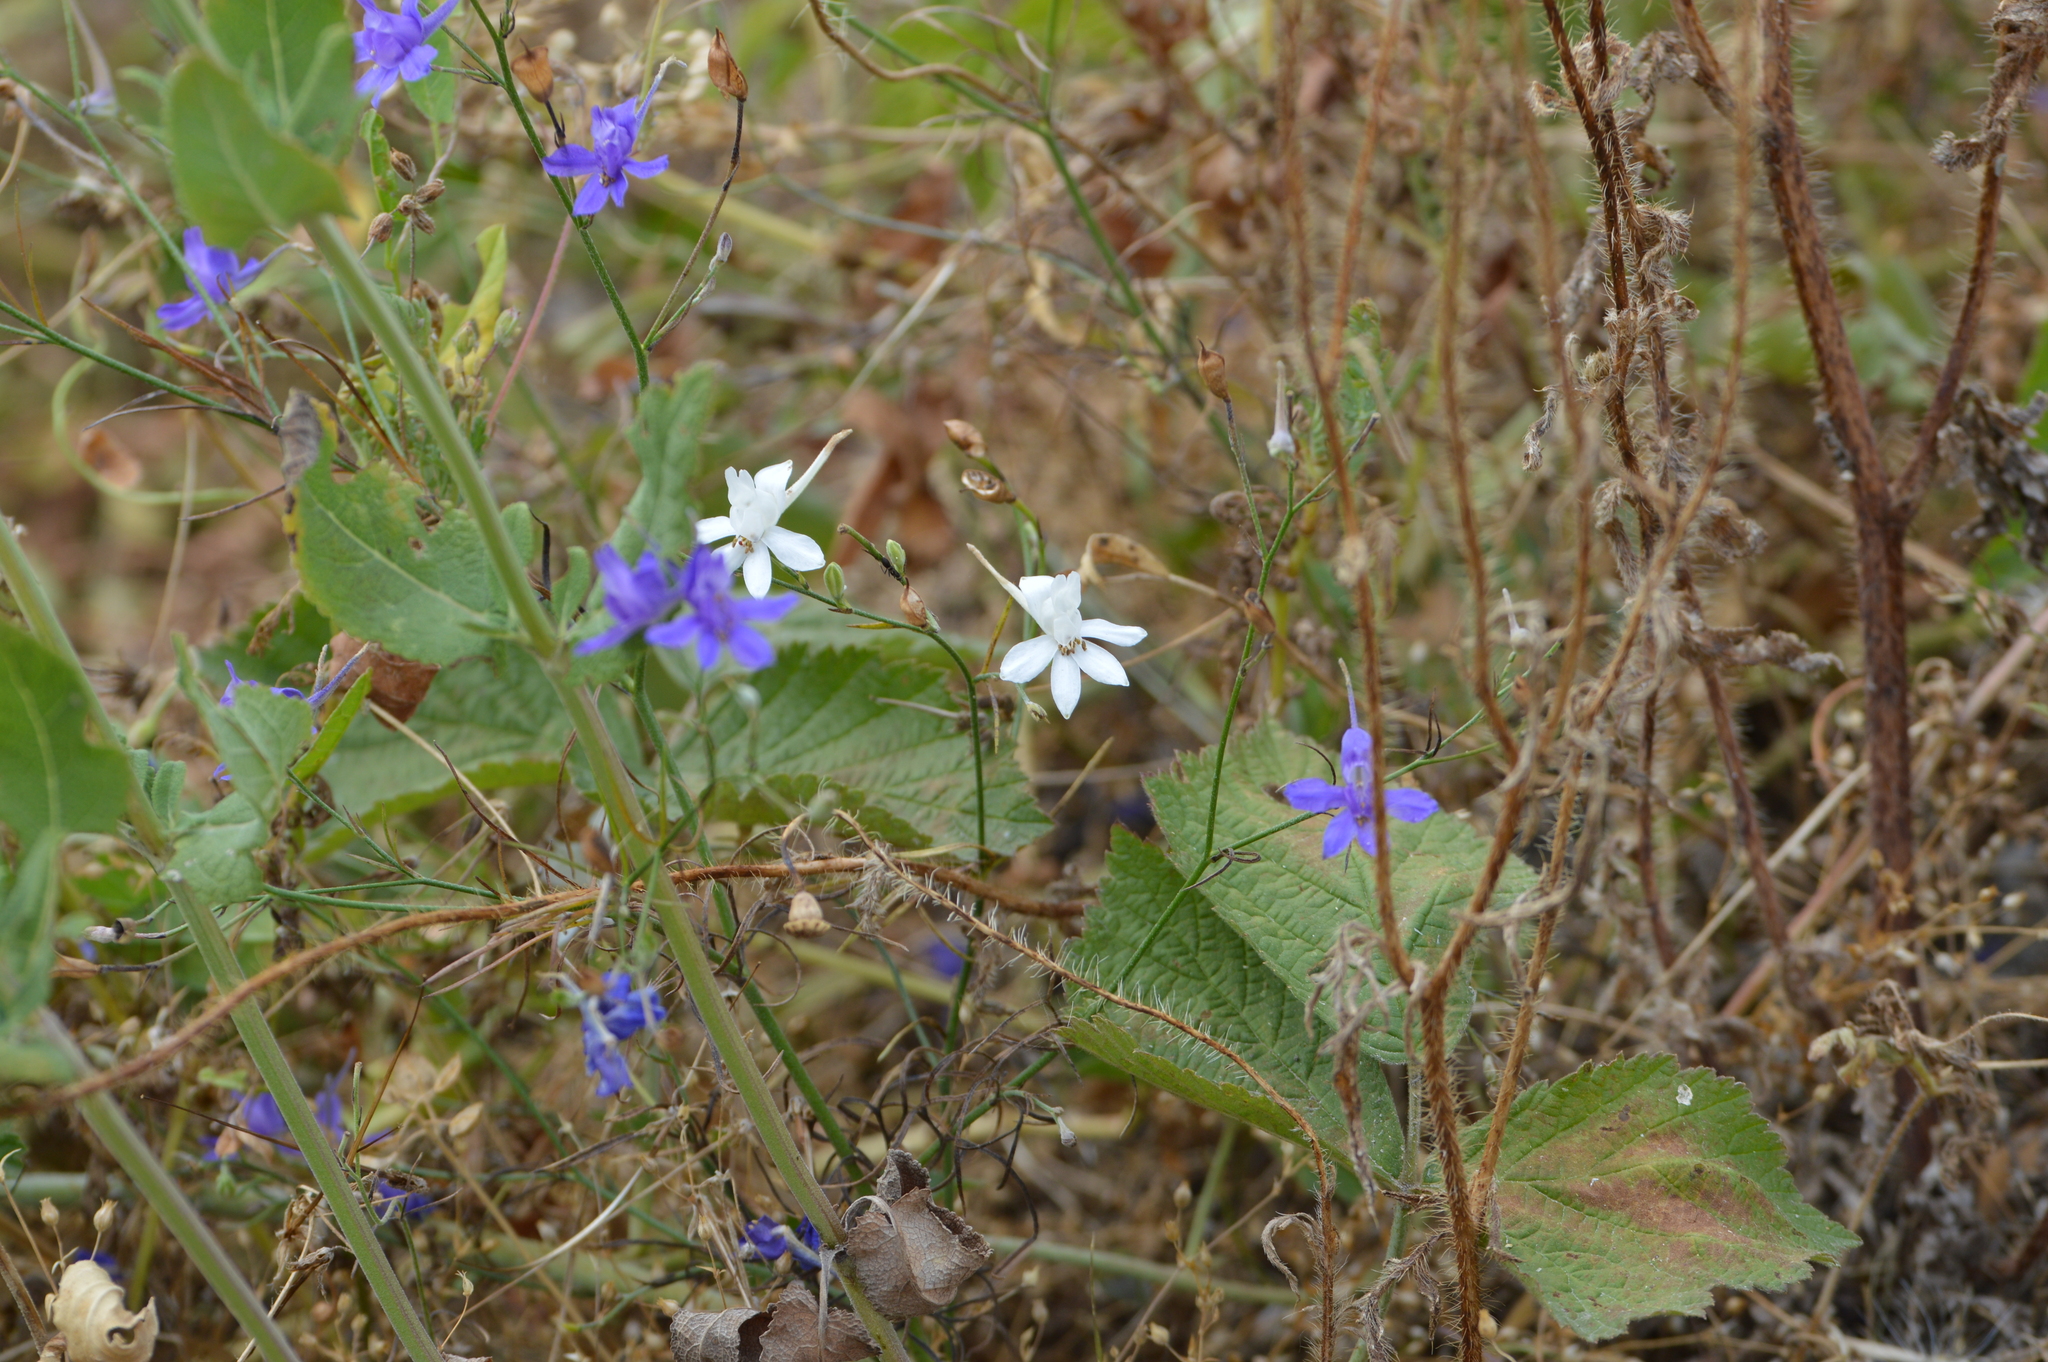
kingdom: Plantae
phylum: Tracheophyta
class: Magnoliopsida
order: Ranunculales
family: Ranunculaceae
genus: Delphinium
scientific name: Delphinium consolida
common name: Branching larkspur
